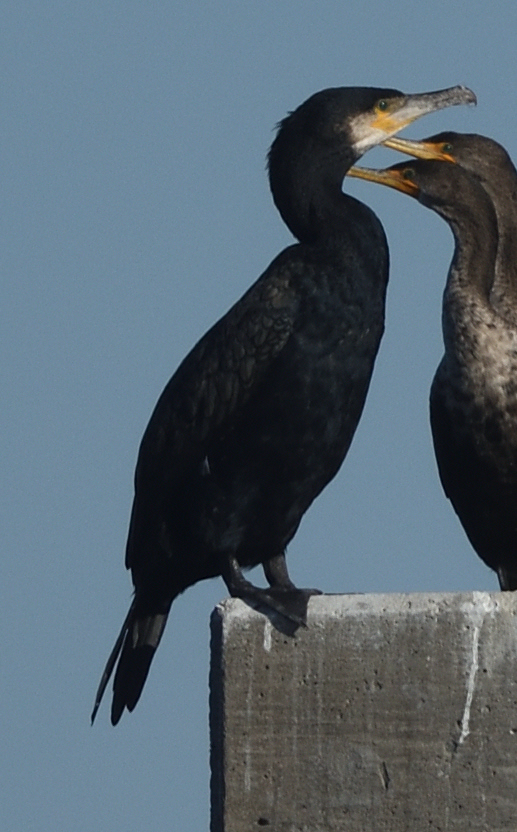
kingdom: Animalia
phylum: Chordata
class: Aves
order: Suliformes
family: Phalacrocoracidae
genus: Phalacrocorax
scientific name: Phalacrocorax carbo
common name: Great cormorant
